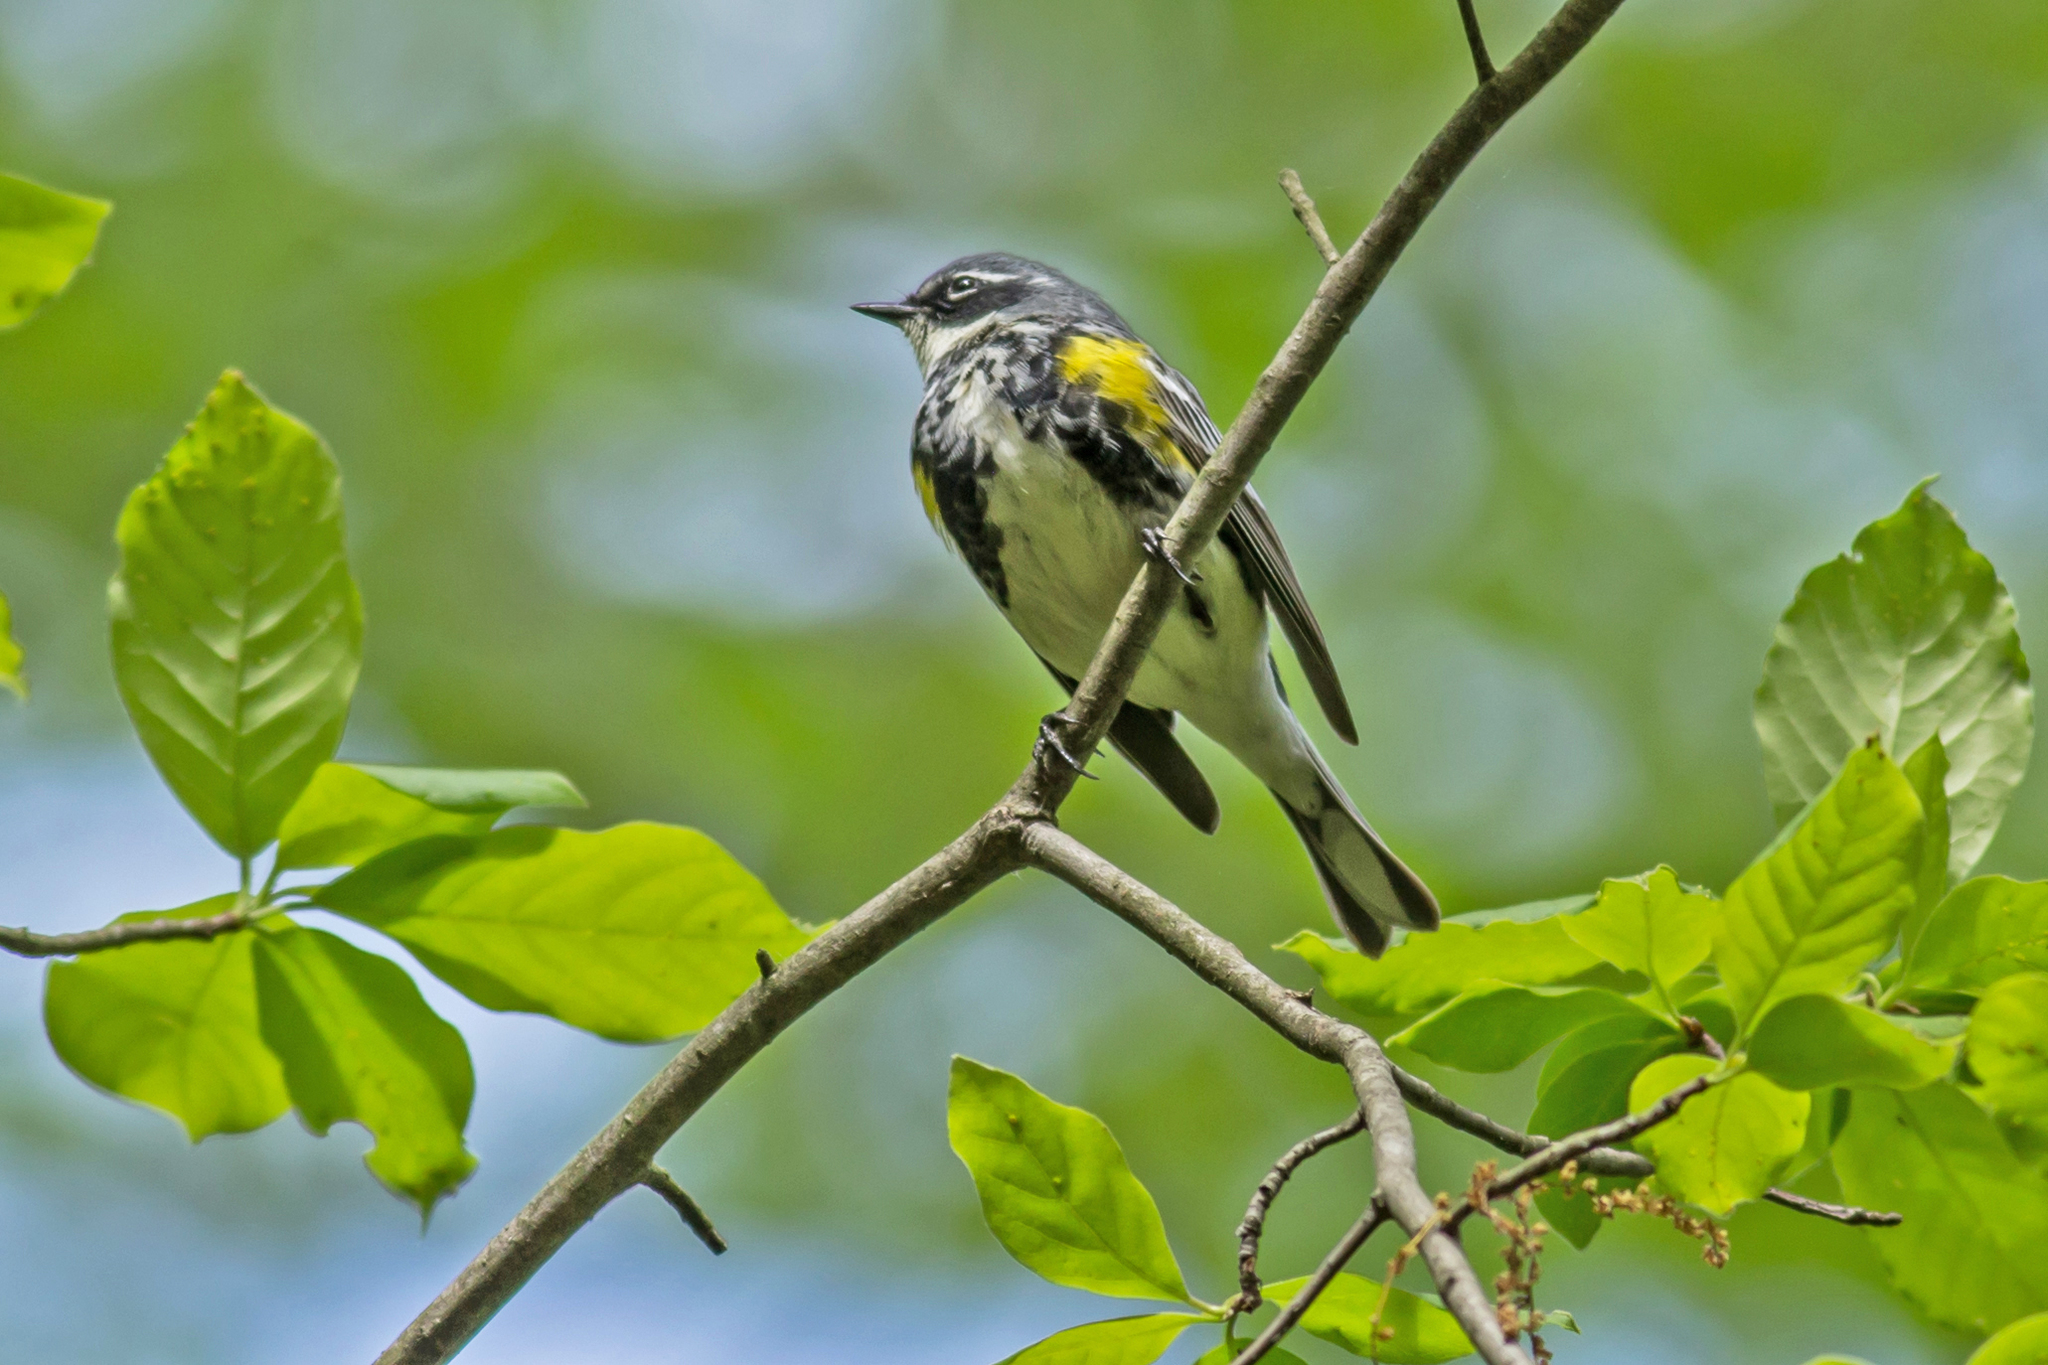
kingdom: Animalia
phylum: Chordata
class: Aves
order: Passeriformes
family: Parulidae
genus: Setophaga
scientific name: Setophaga coronata
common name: Myrtle warbler
